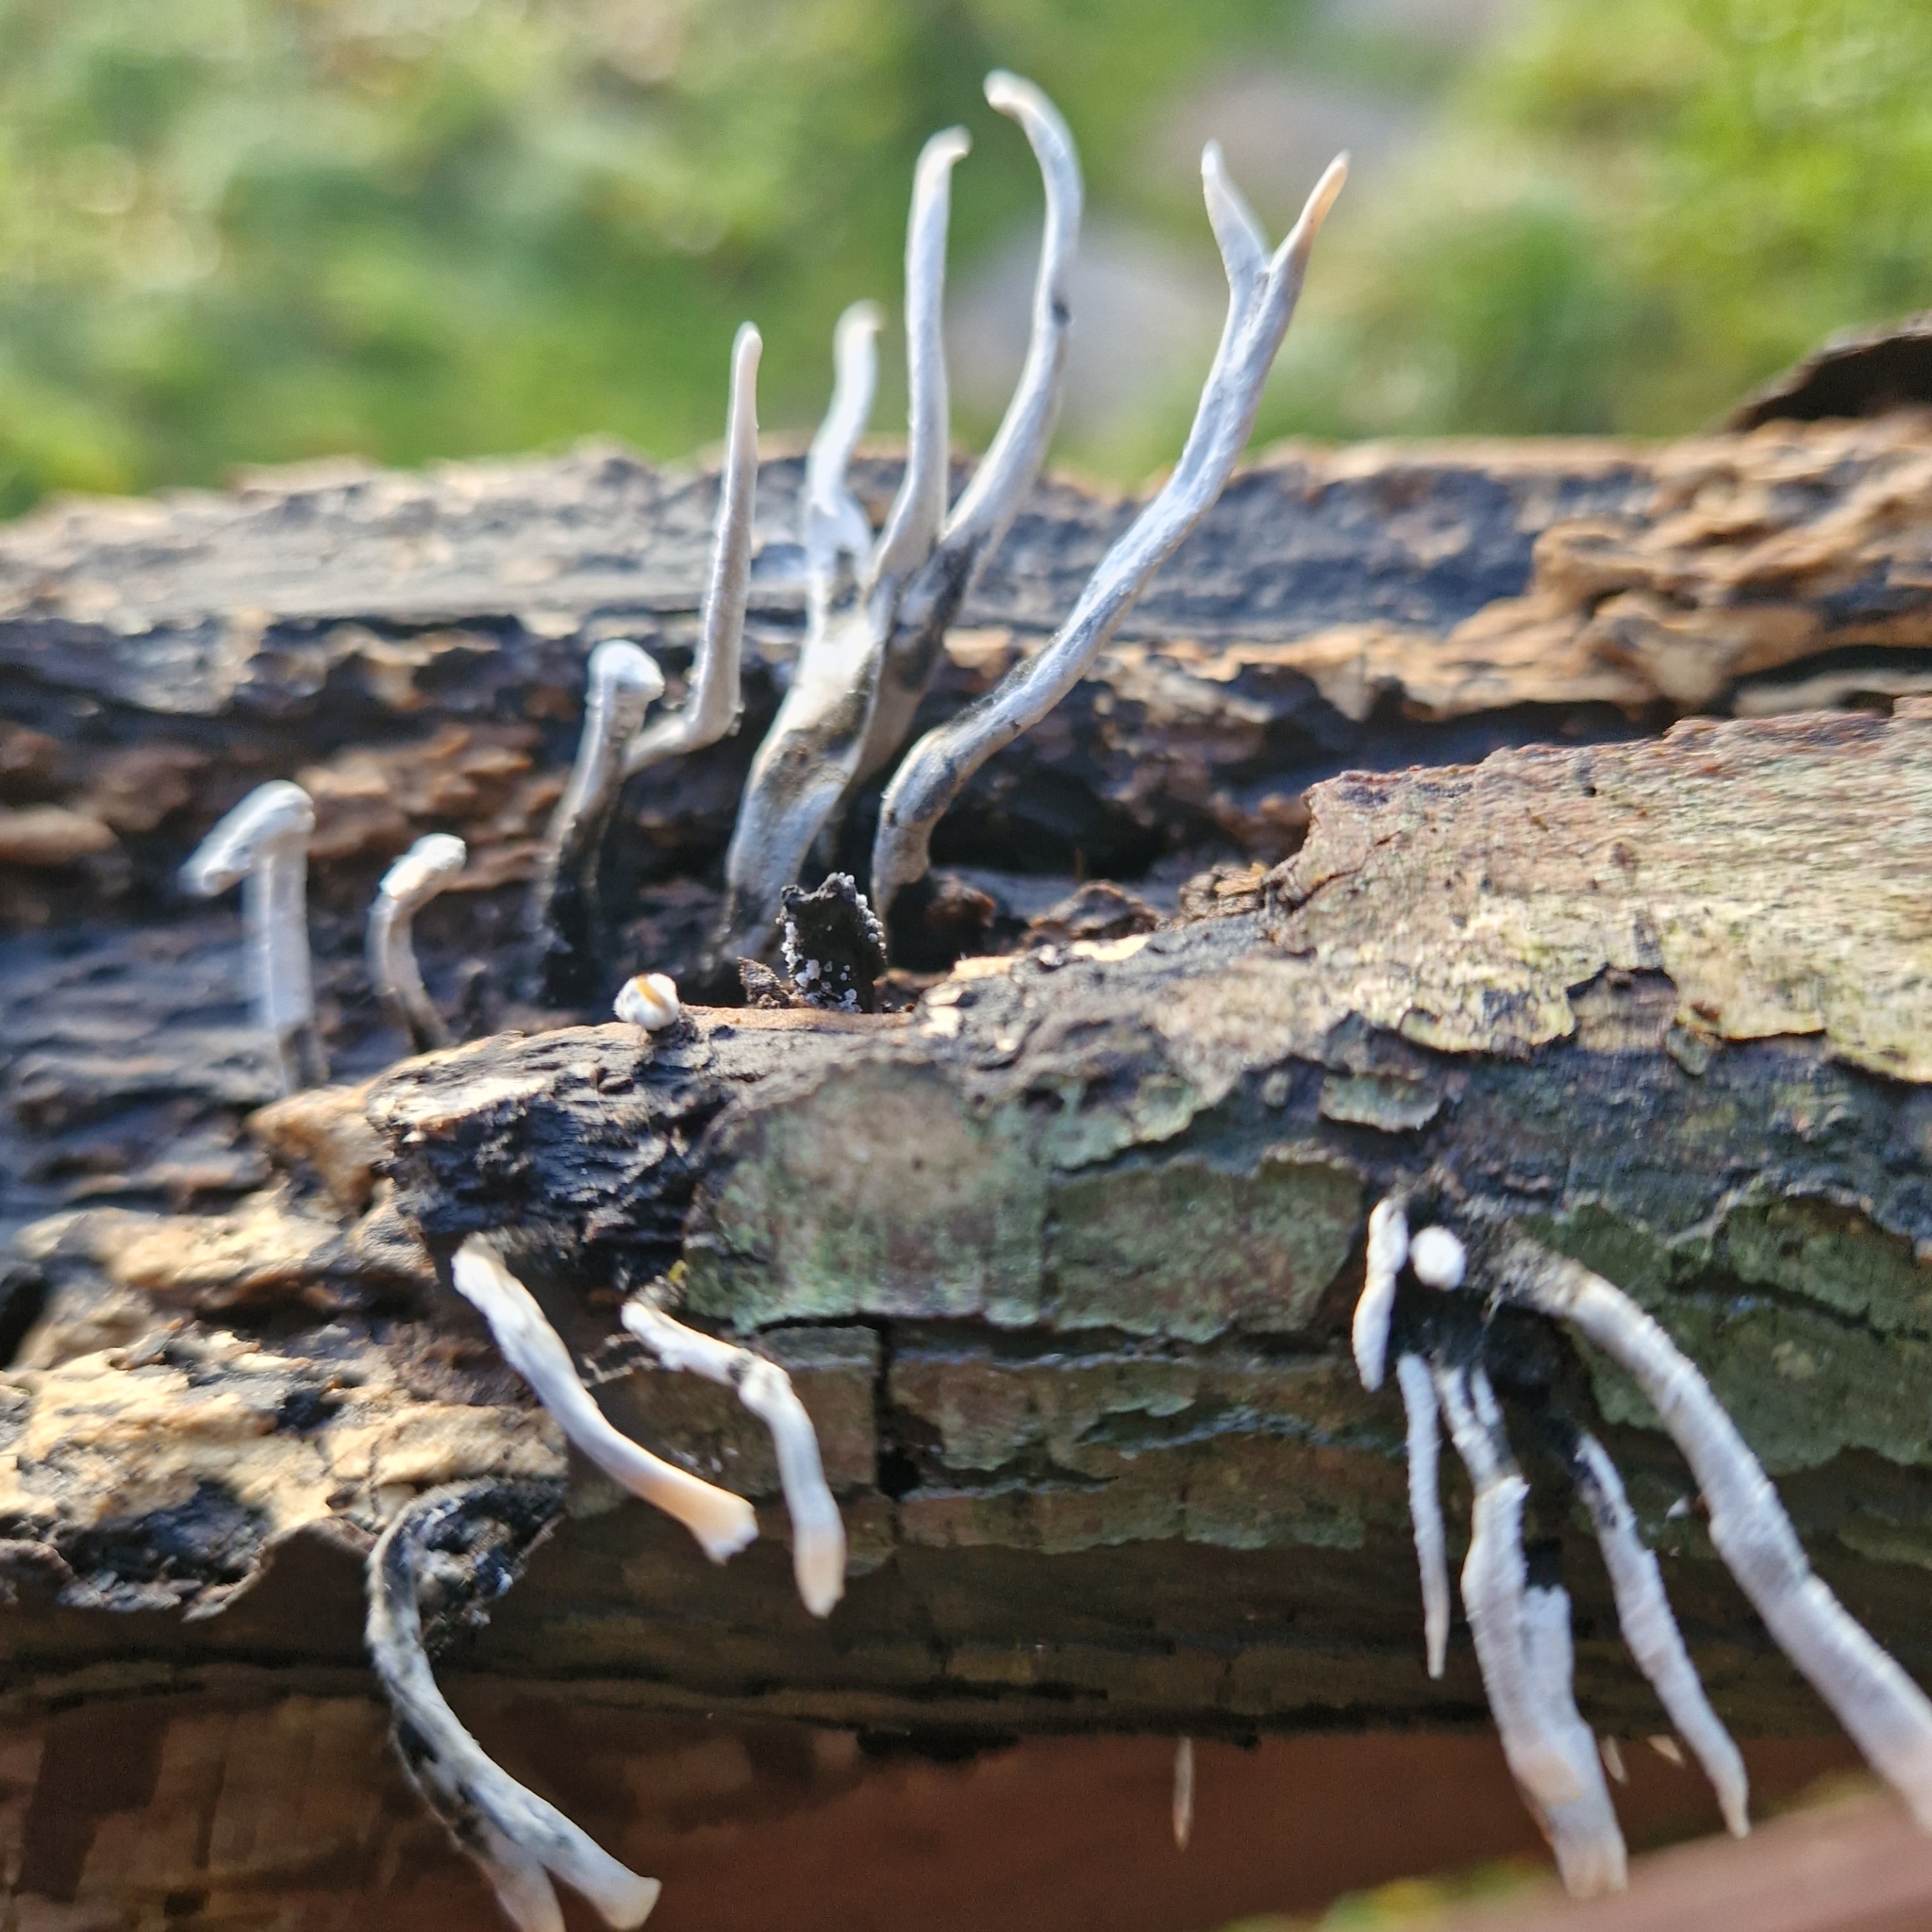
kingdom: Fungi
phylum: Ascomycota
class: Sordariomycetes
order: Xylariales
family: Xylariaceae
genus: Xylaria
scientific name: Xylaria hypoxylon
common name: Candle-snuff fungus
